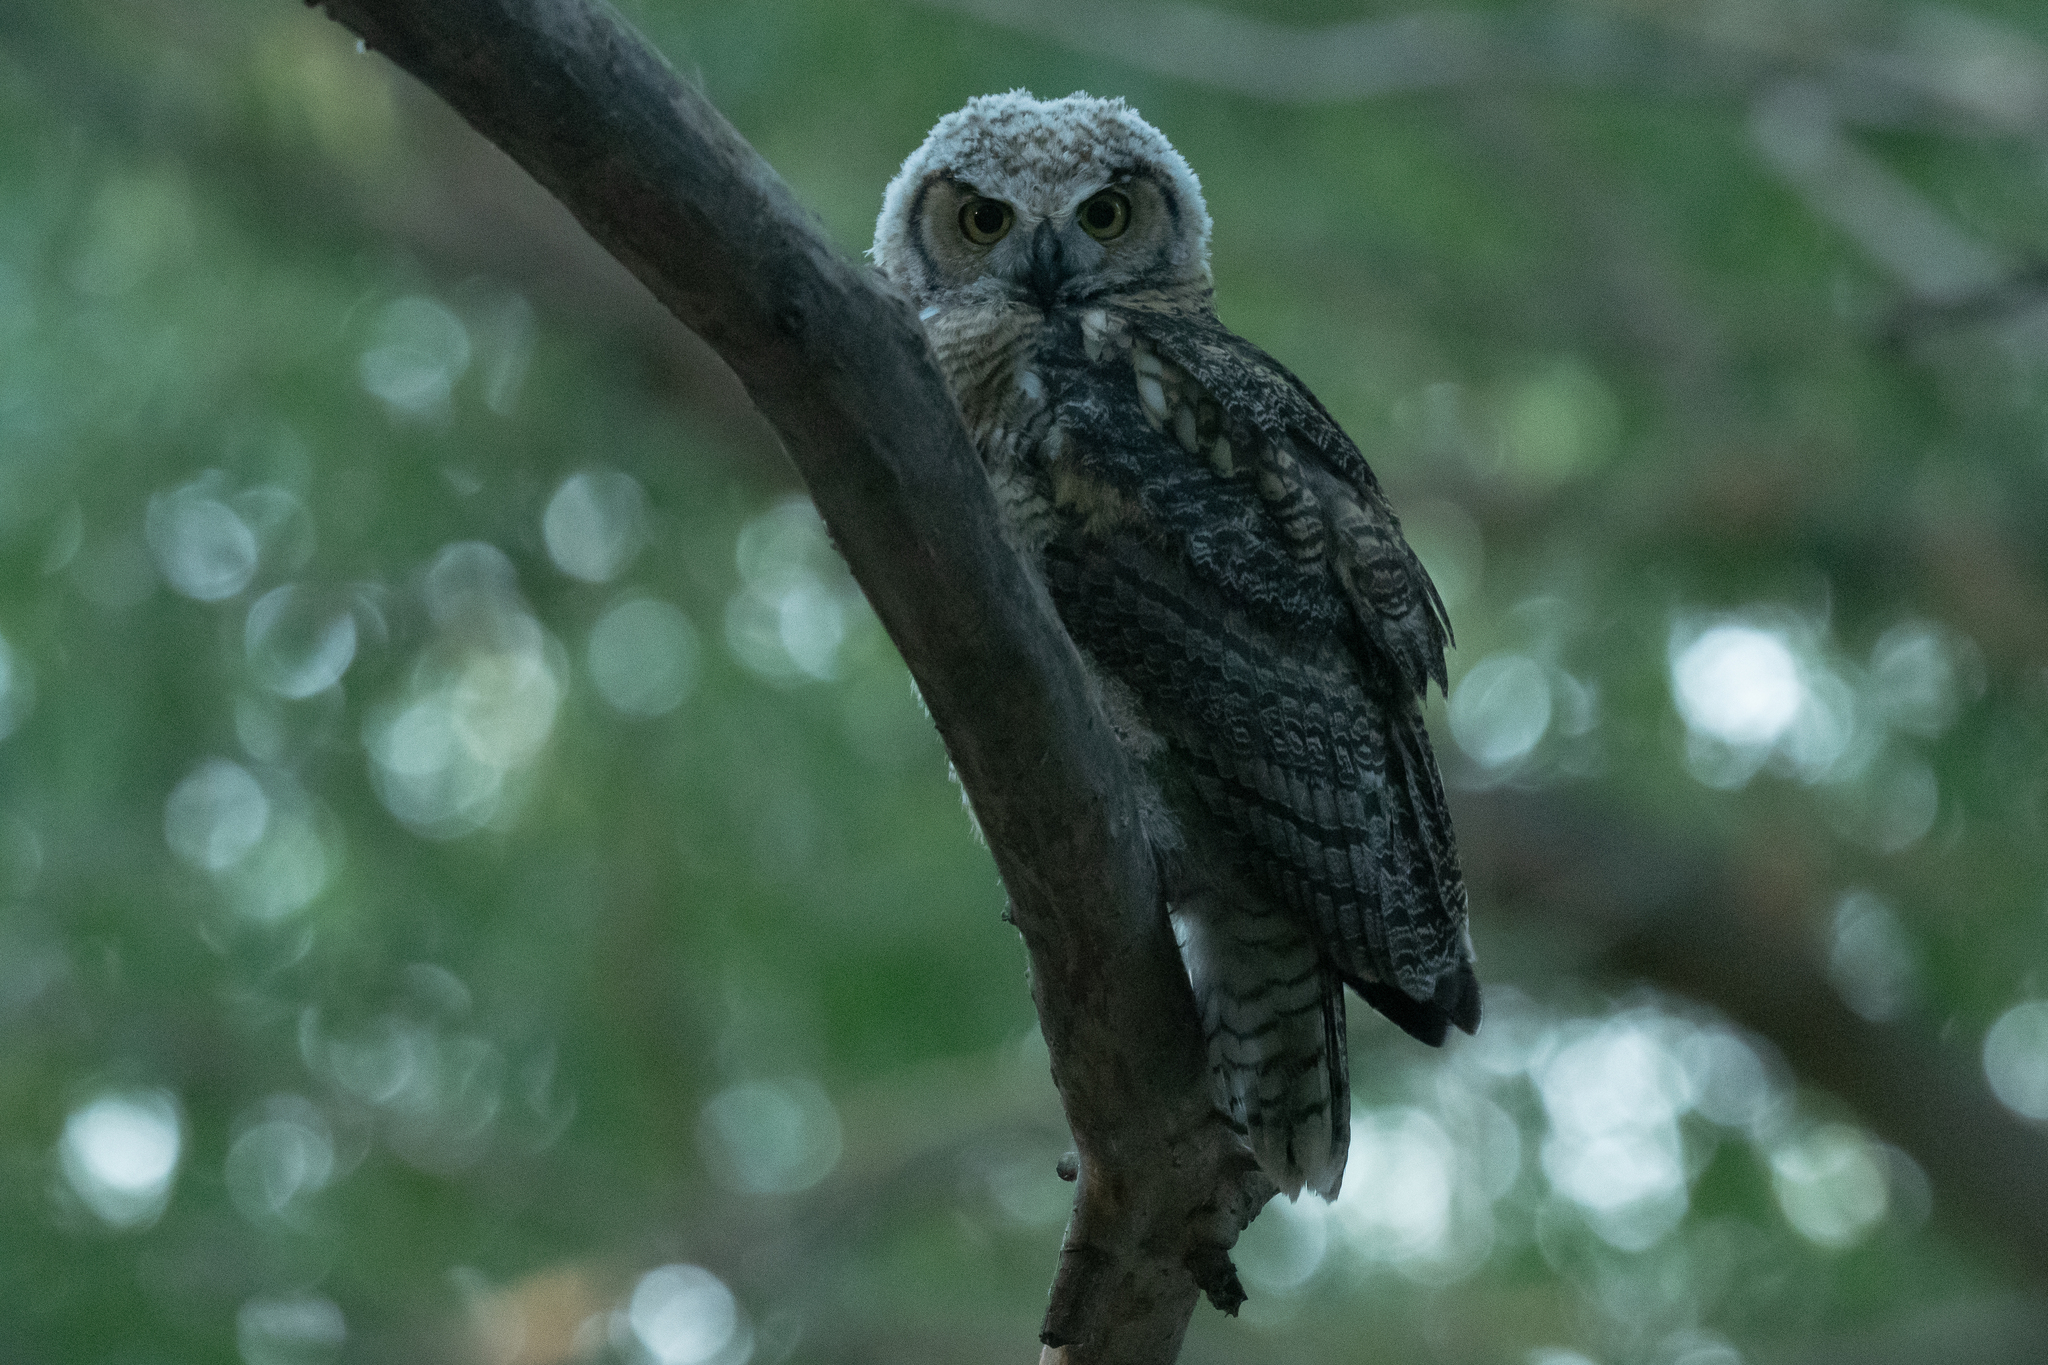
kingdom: Animalia
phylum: Chordata
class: Aves
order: Strigiformes
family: Strigidae
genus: Bubo
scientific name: Bubo virginianus
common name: Great horned owl
